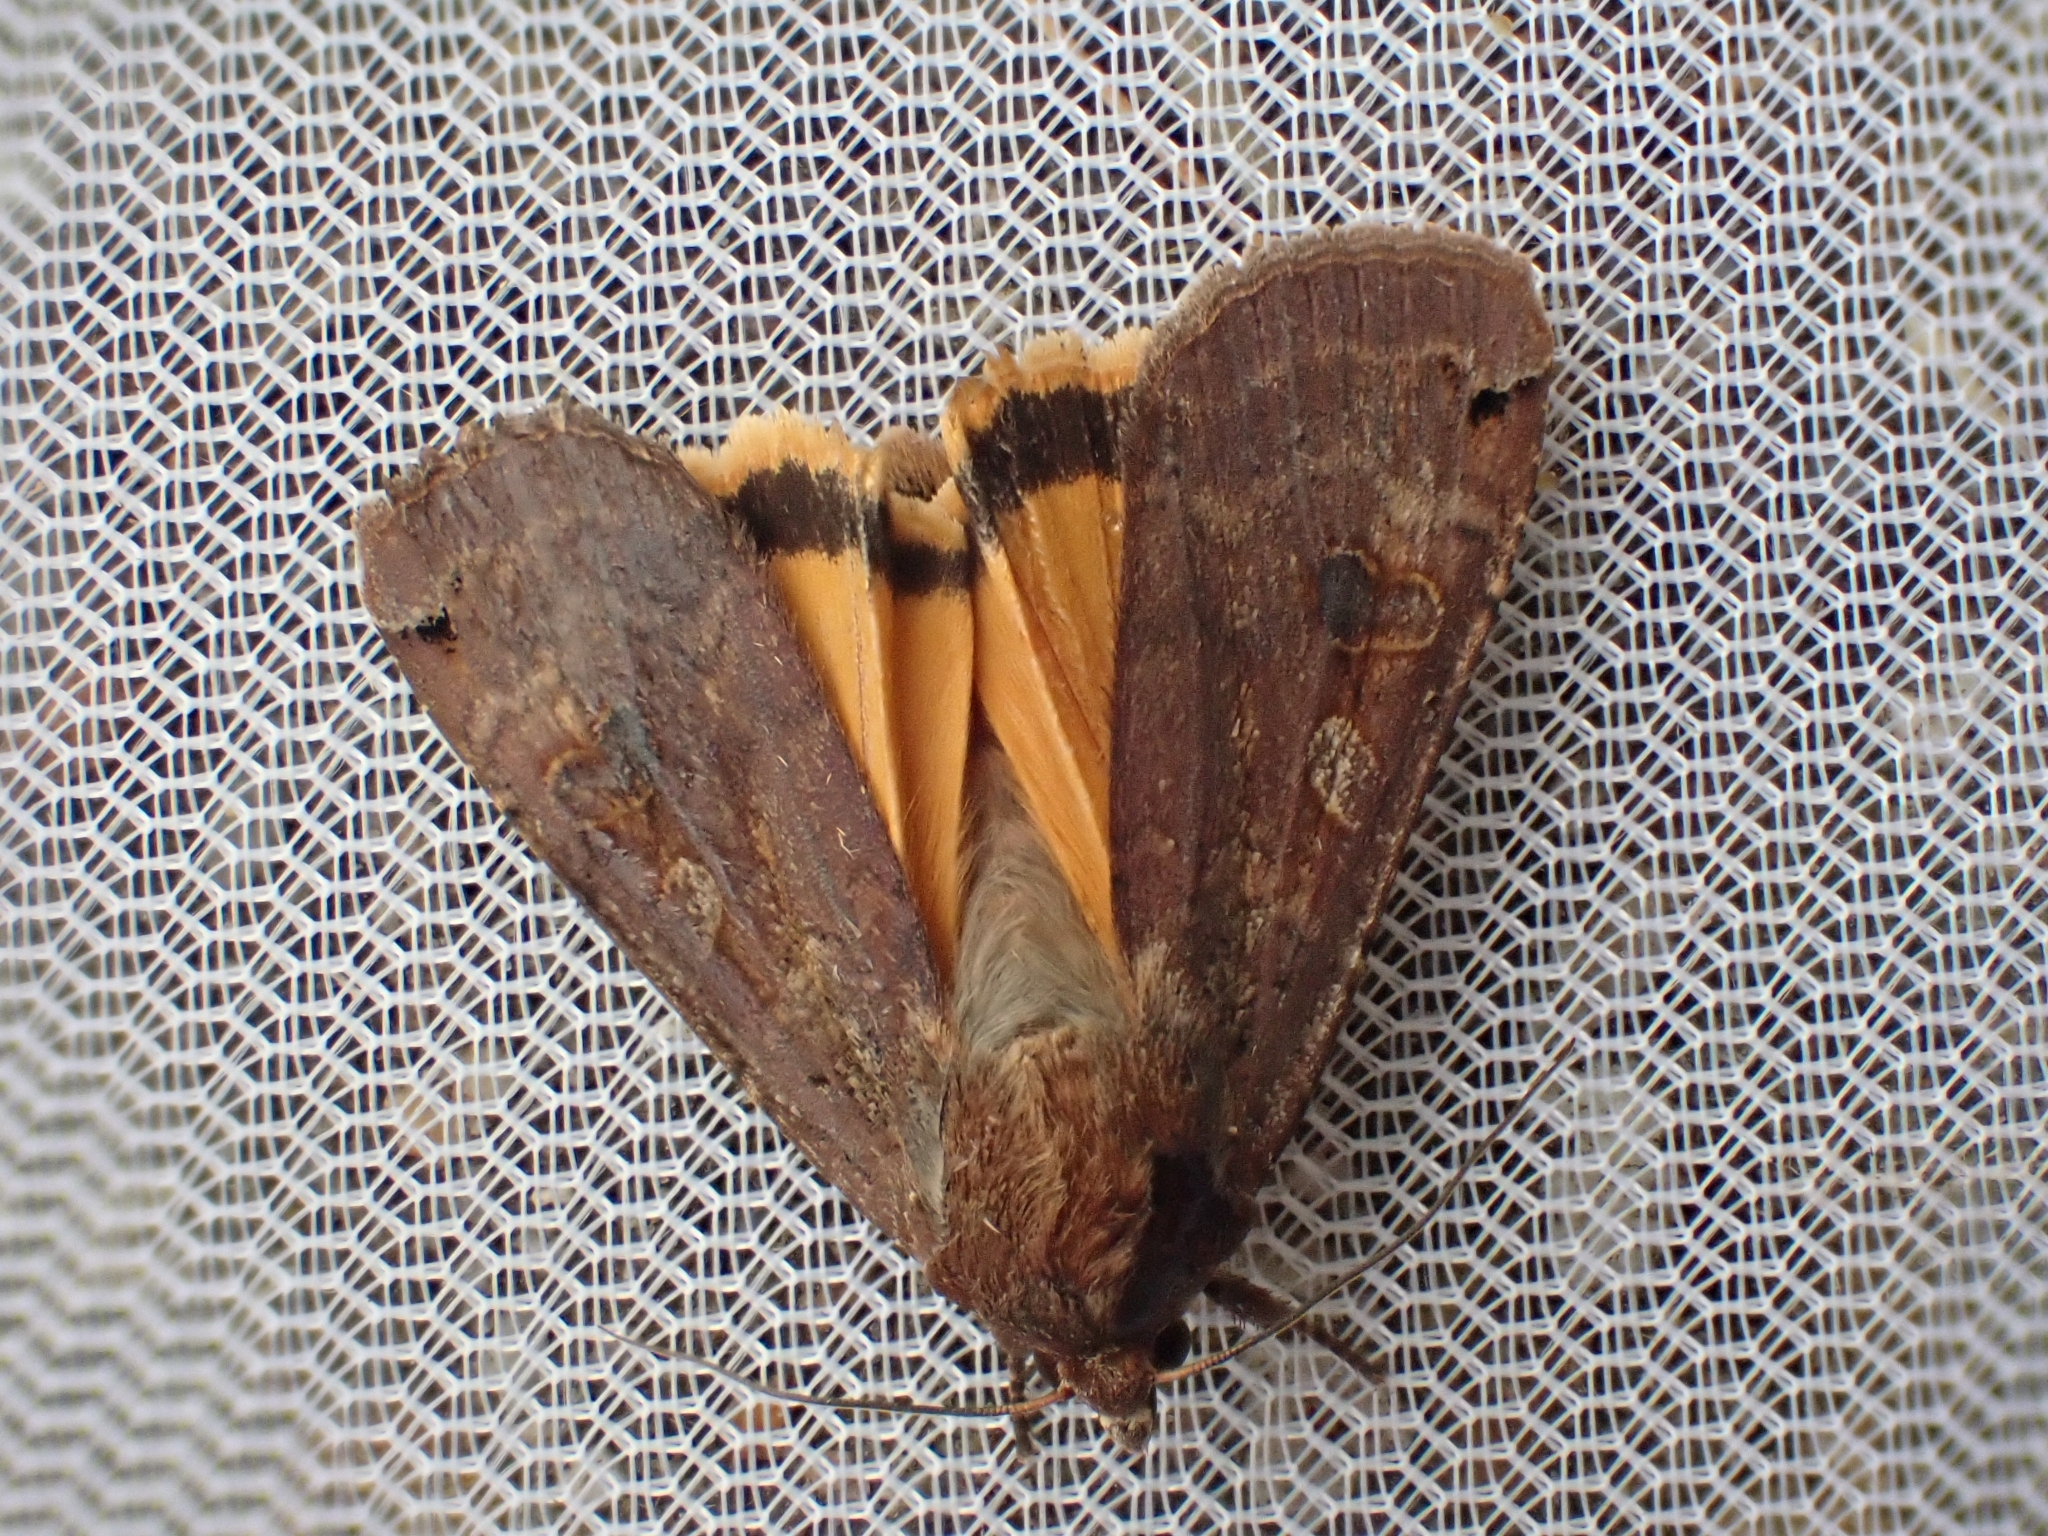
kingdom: Animalia
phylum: Arthropoda
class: Insecta
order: Lepidoptera
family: Noctuidae
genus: Noctua
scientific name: Noctua pronuba
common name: Large yellow underwing
